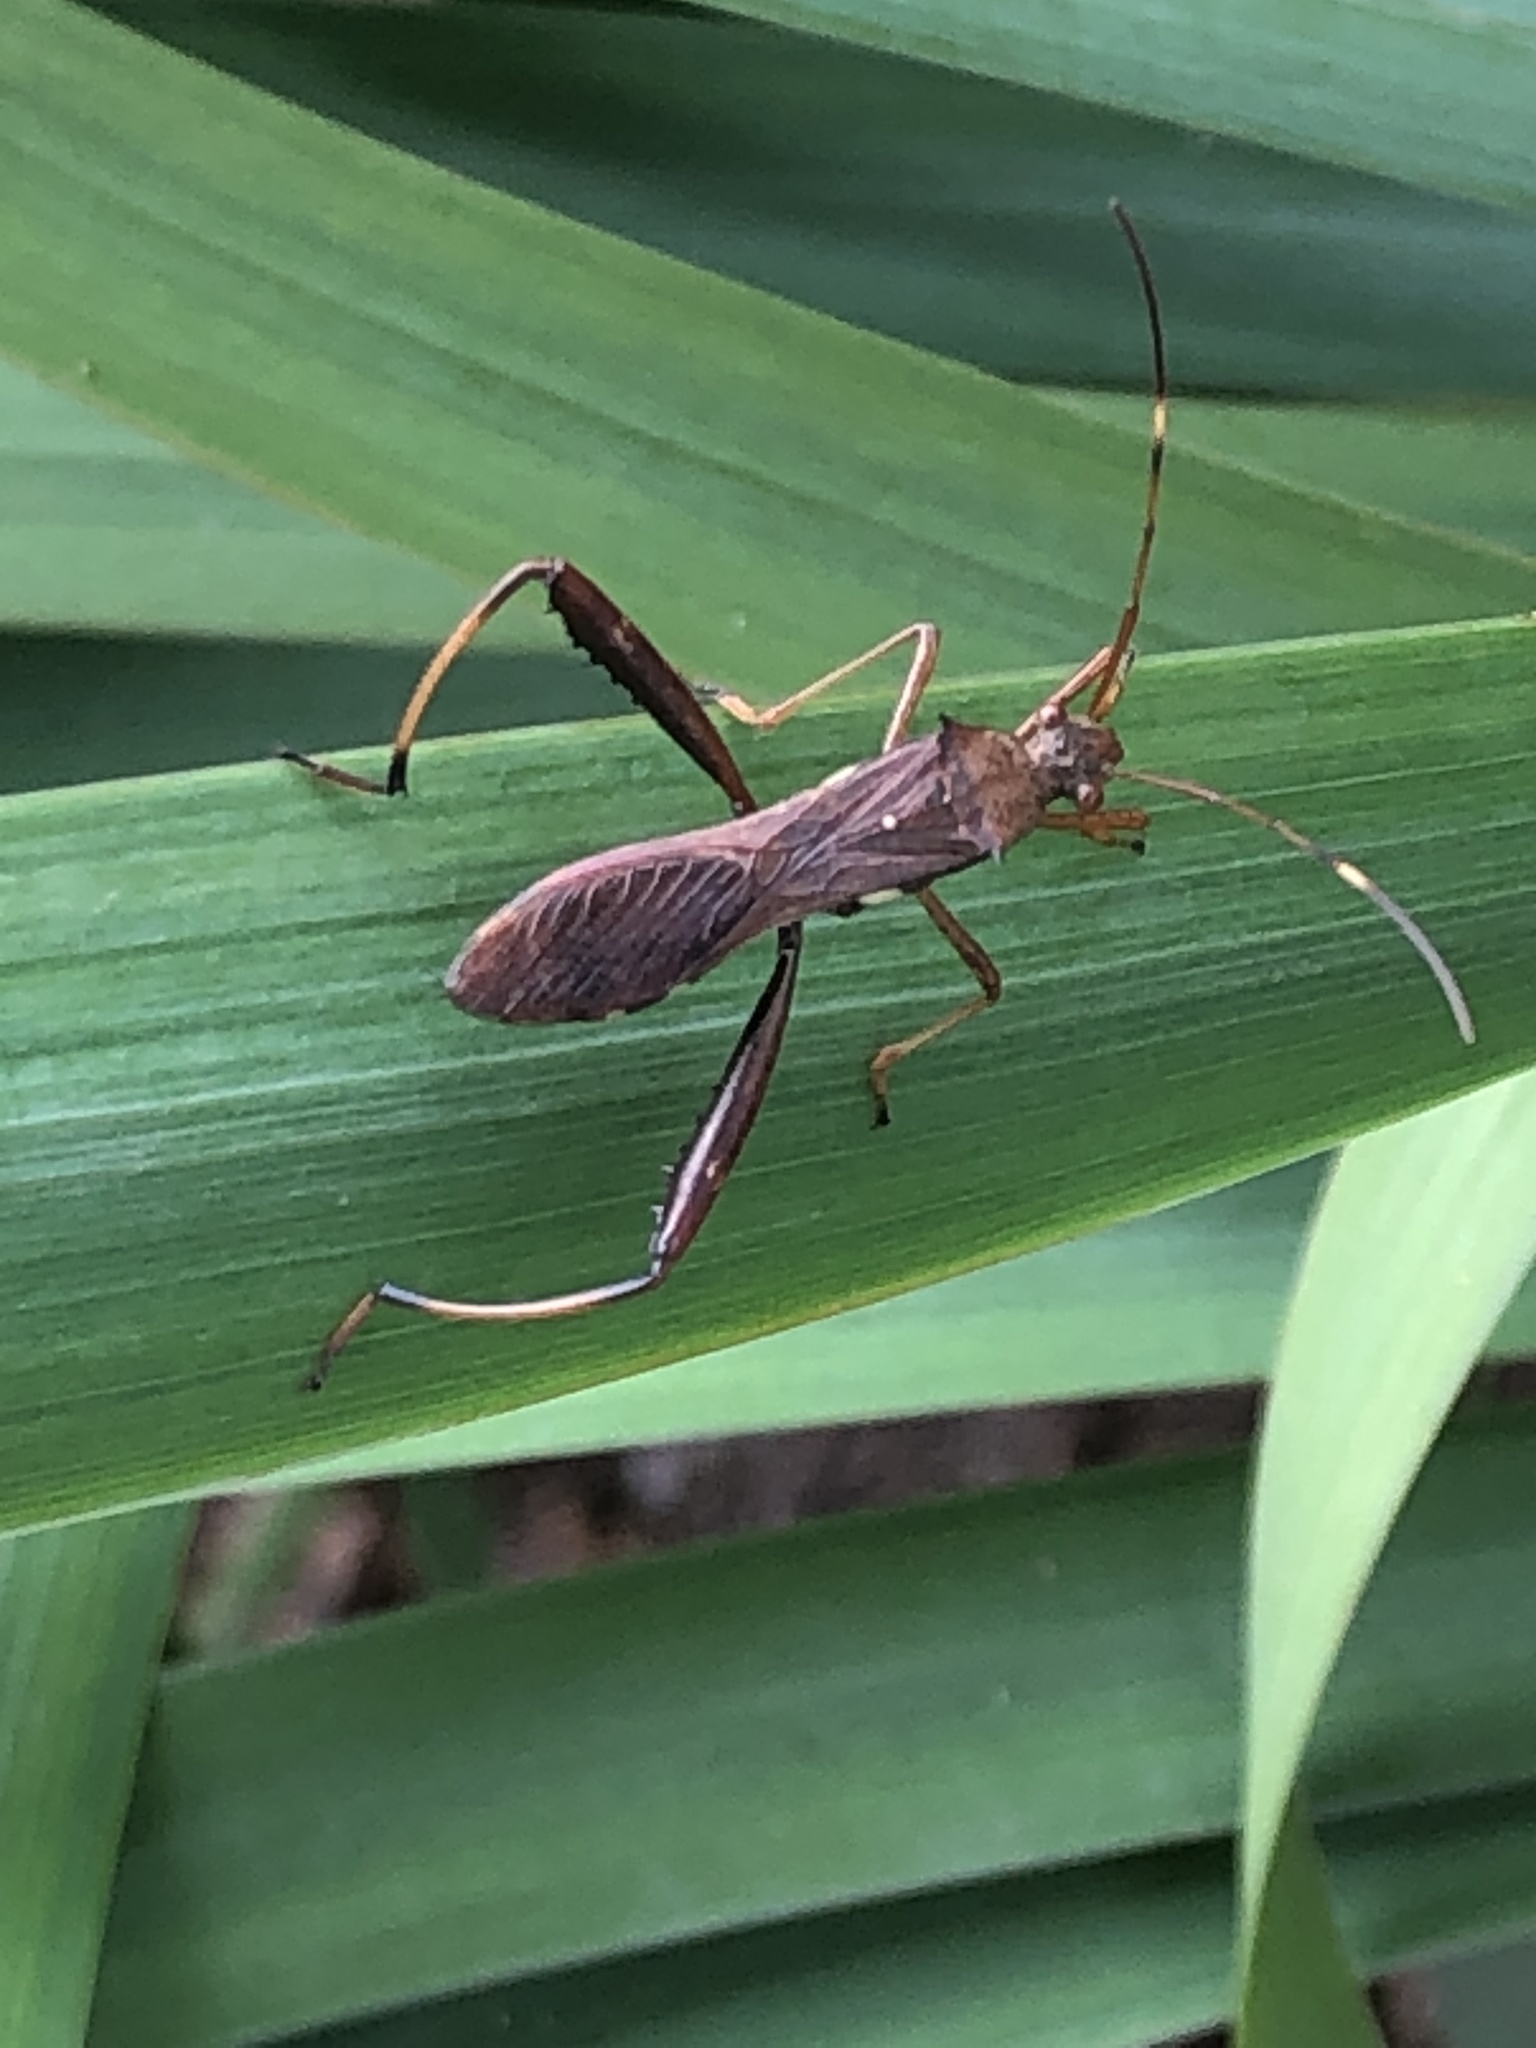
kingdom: Animalia
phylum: Arthropoda
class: Insecta
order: Hemiptera
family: Alydidae
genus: Riptortus
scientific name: Riptortus pedestris
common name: Bean bug
